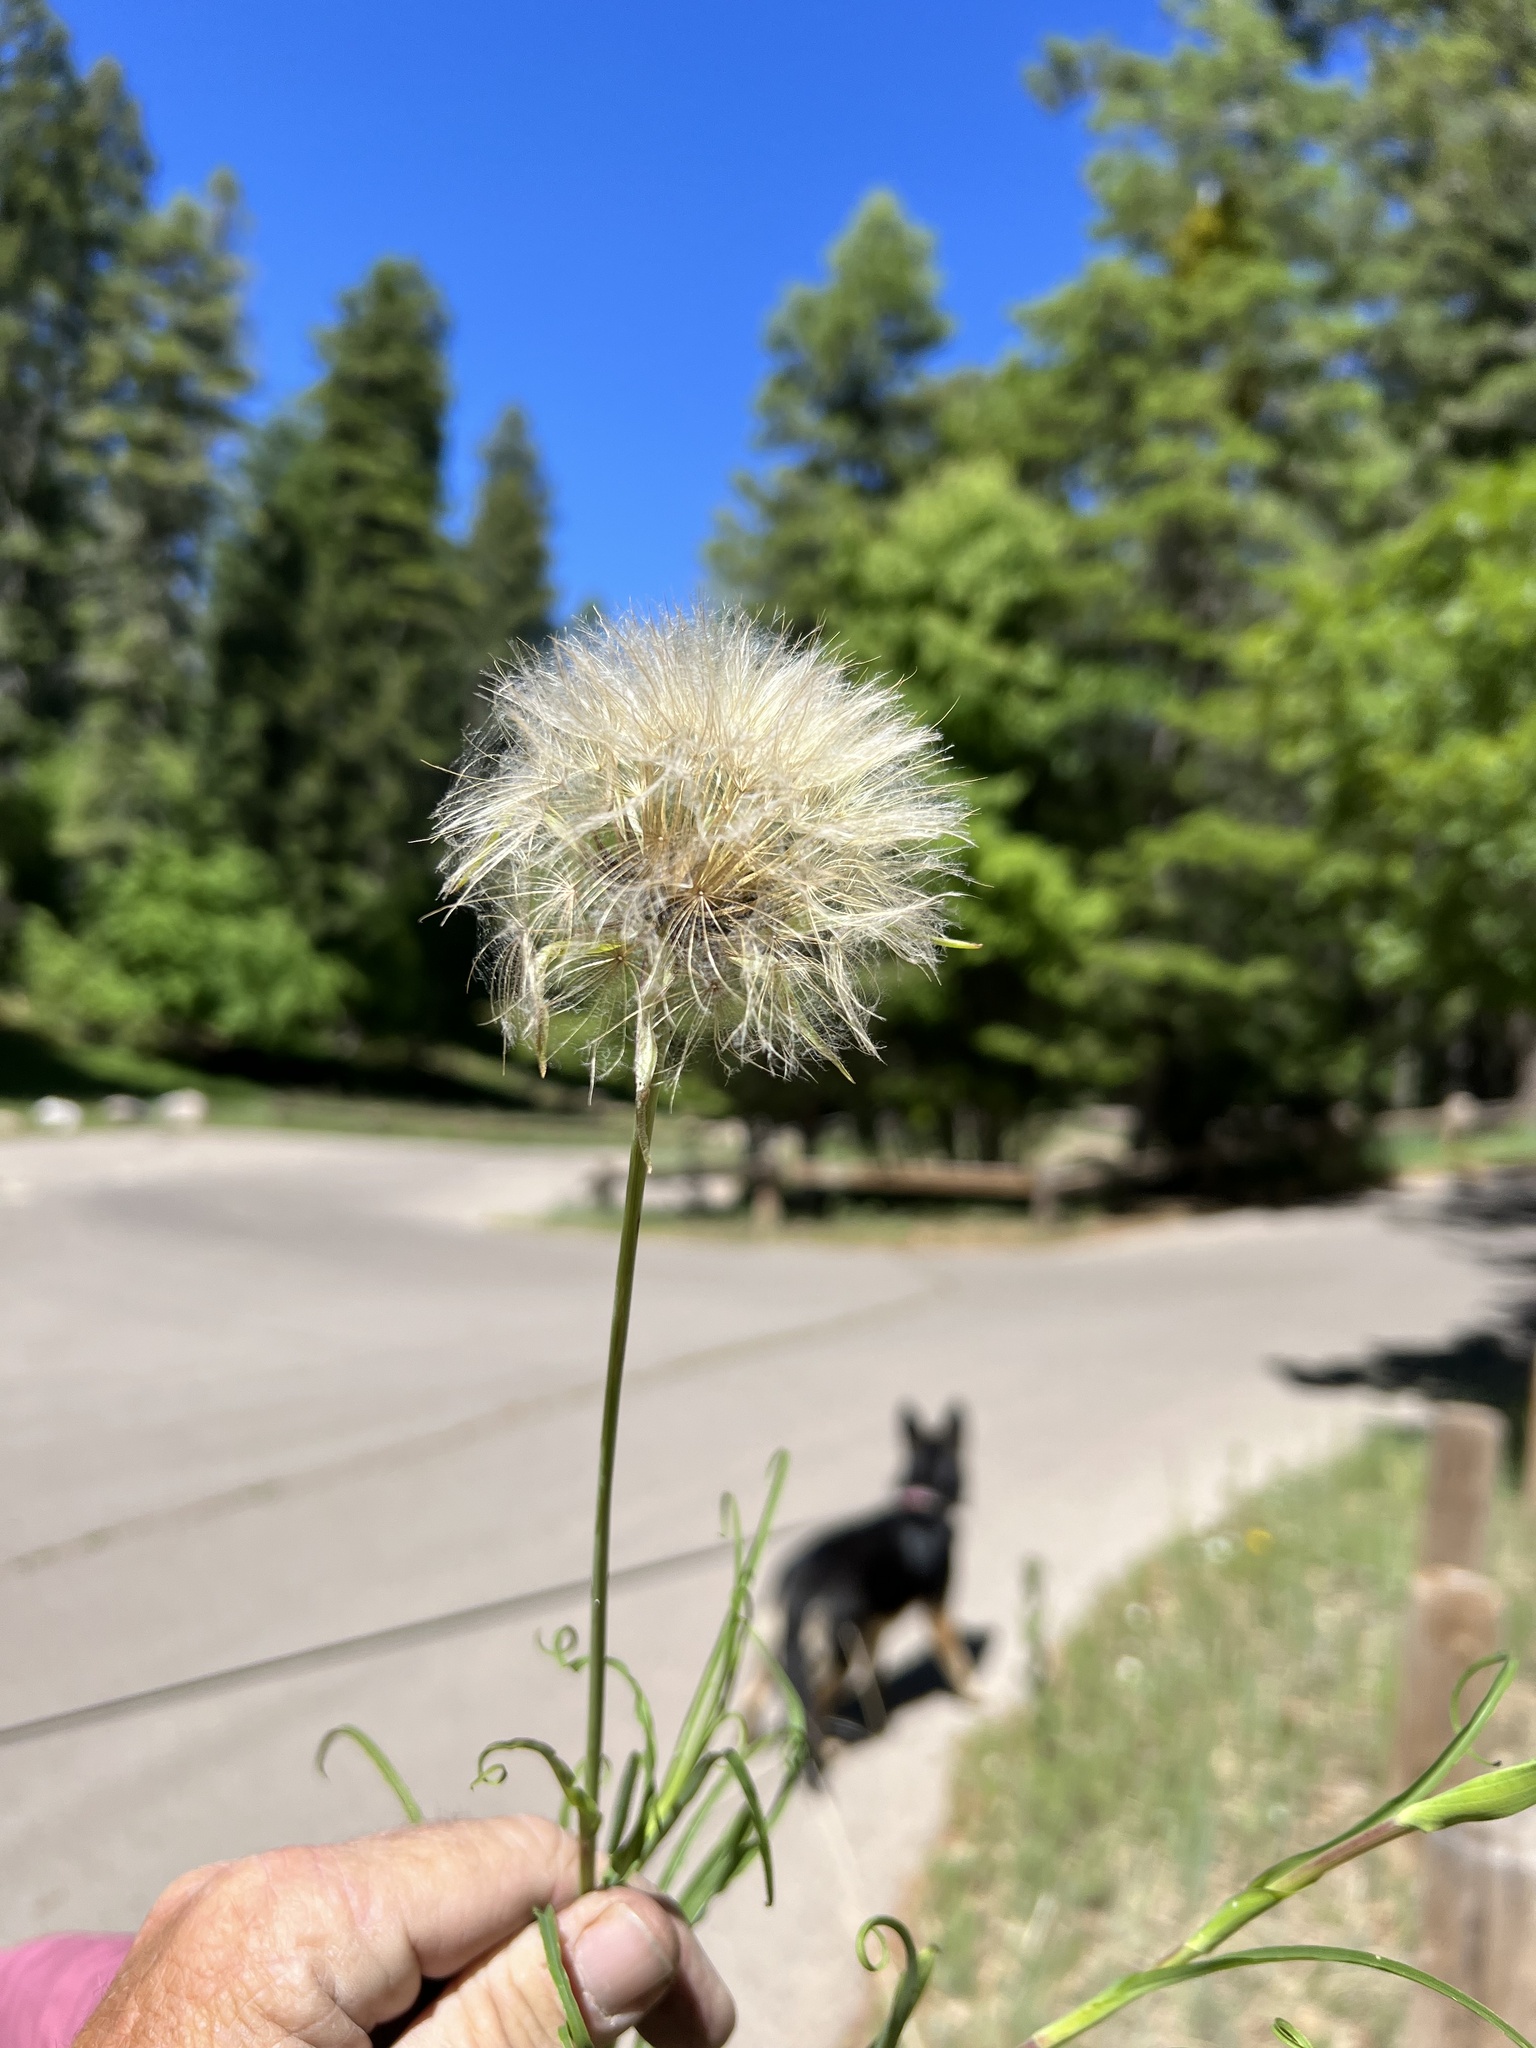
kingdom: Plantae
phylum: Tracheophyta
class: Magnoliopsida
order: Asterales
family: Asteraceae
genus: Microseris
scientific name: Microseris lindleyi
